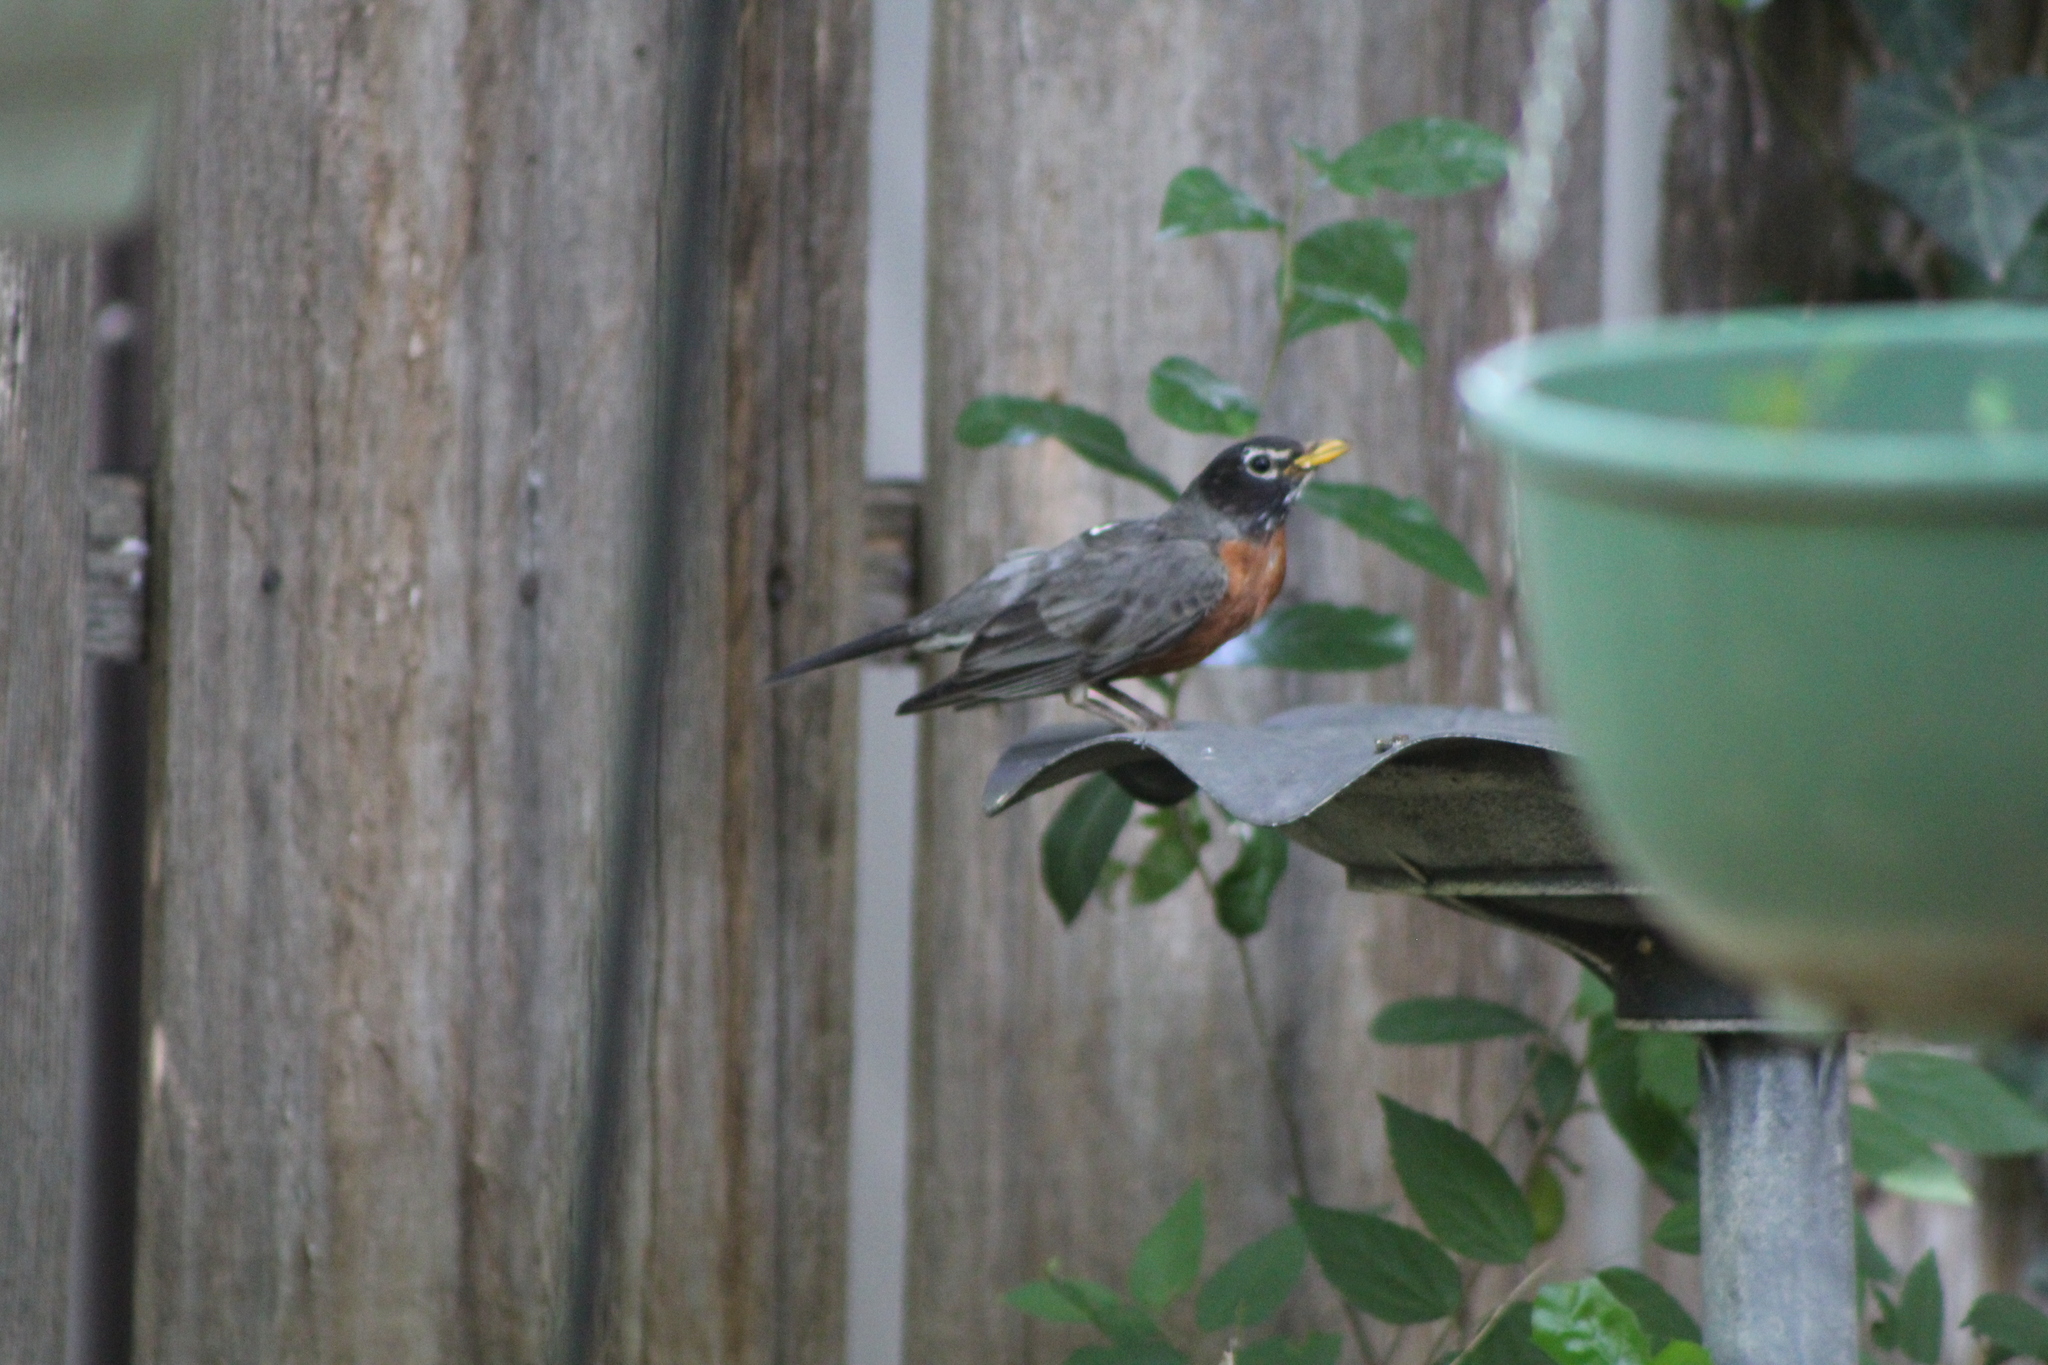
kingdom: Animalia
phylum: Chordata
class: Aves
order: Passeriformes
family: Turdidae
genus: Turdus
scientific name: Turdus migratorius
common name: American robin
